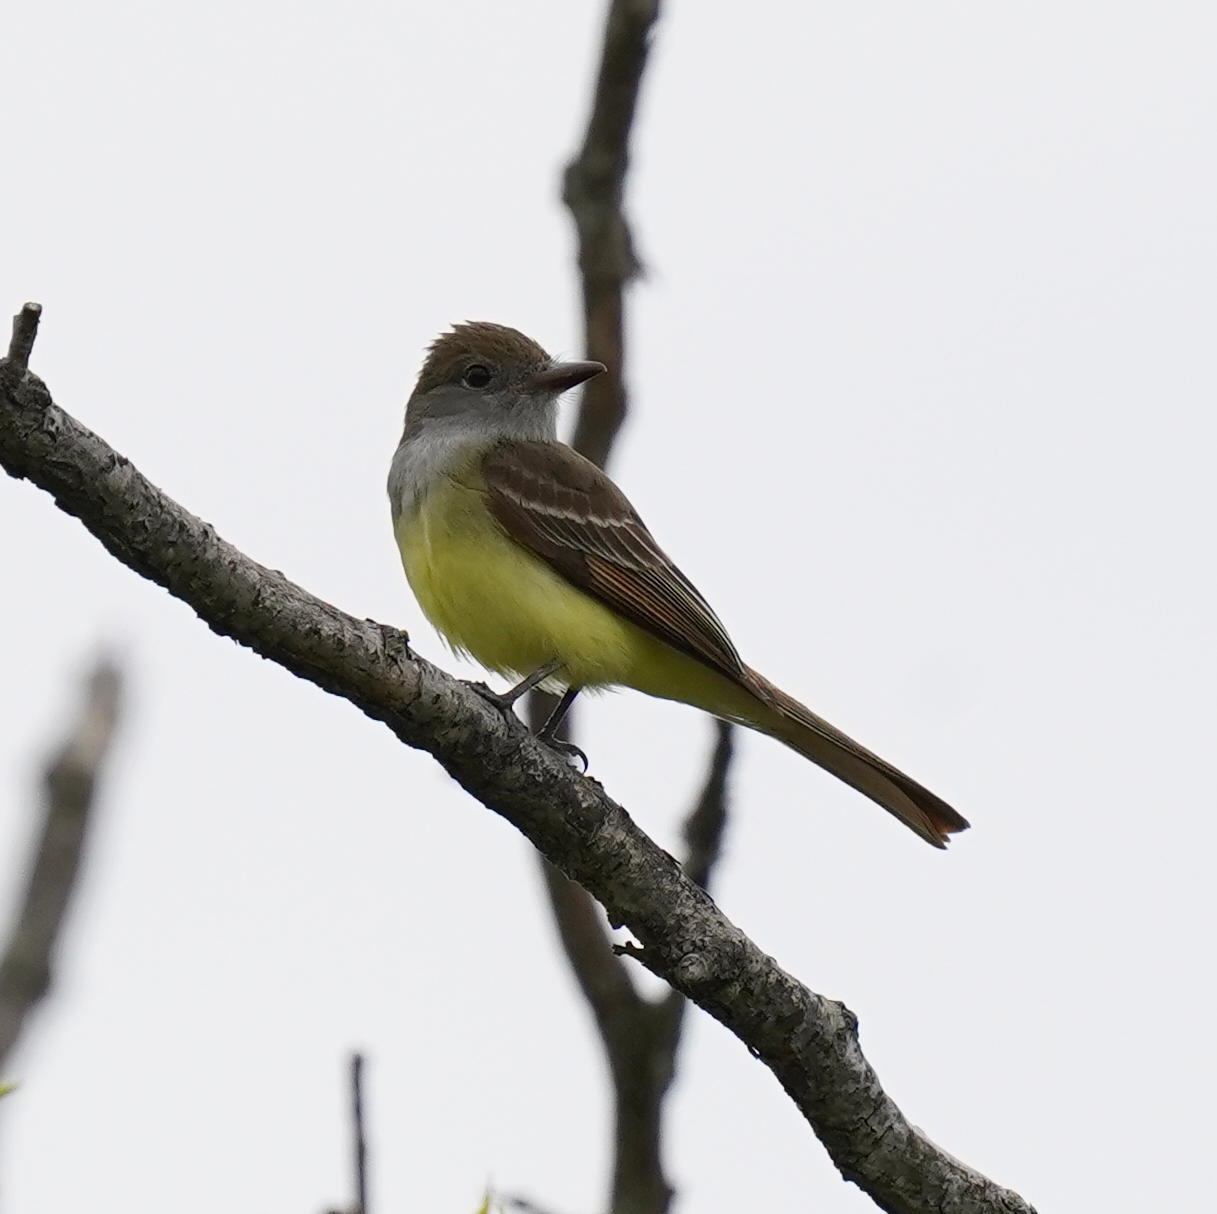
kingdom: Animalia
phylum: Chordata
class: Aves
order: Passeriformes
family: Tyrannidae
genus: Myiarchus
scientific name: Myiarchus crinitus
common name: Great crested flycatcher
